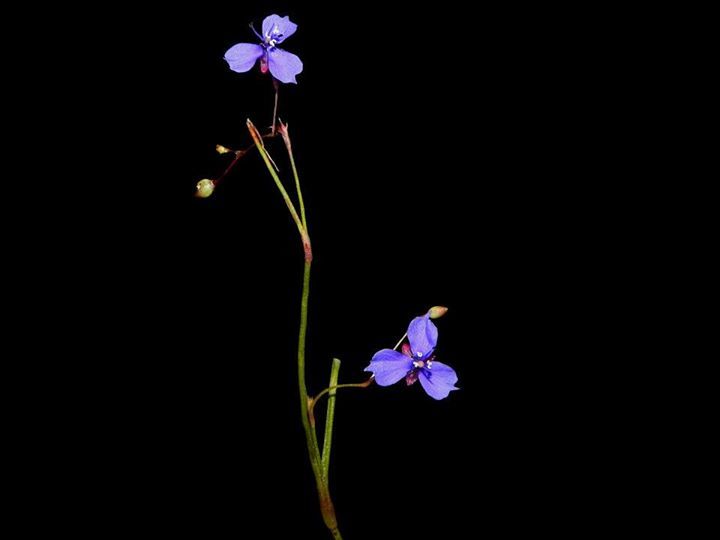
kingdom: Plantae
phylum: Tracheophyta
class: Liliopsida
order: Commelinales
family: Commelinaceae
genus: Murdannia
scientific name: Murdannia semiteres
